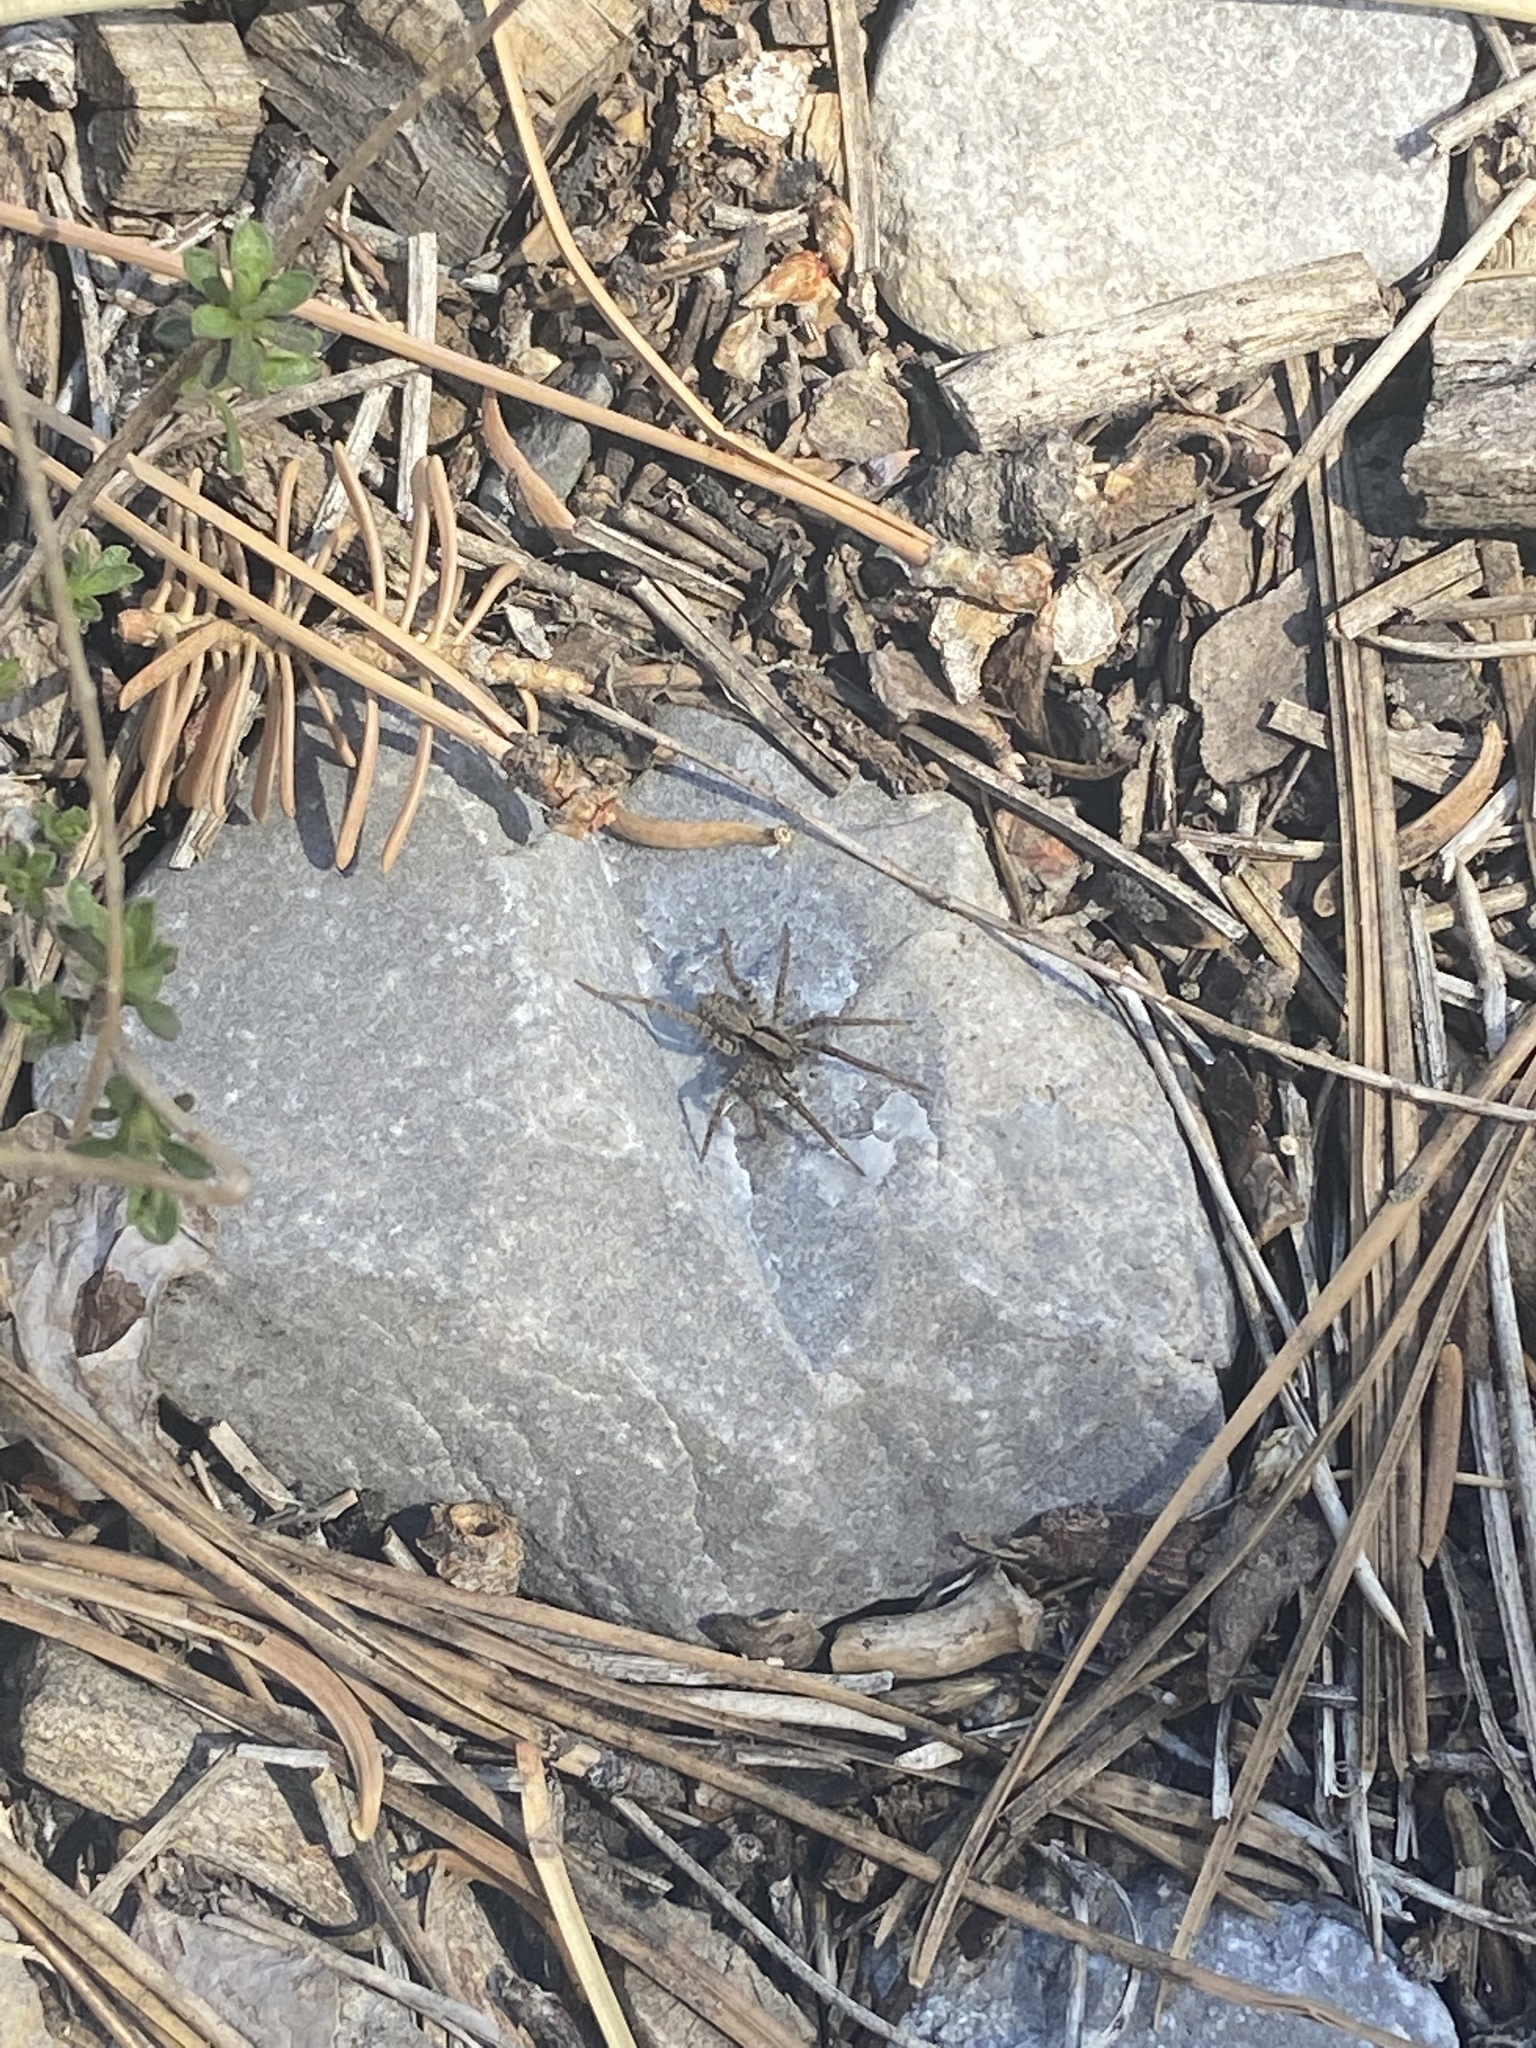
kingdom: Animalia
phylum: Arthropoda
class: Arachnida
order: Araneae
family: Lycosidae
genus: Alopecosa
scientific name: Alopecosa kochi
